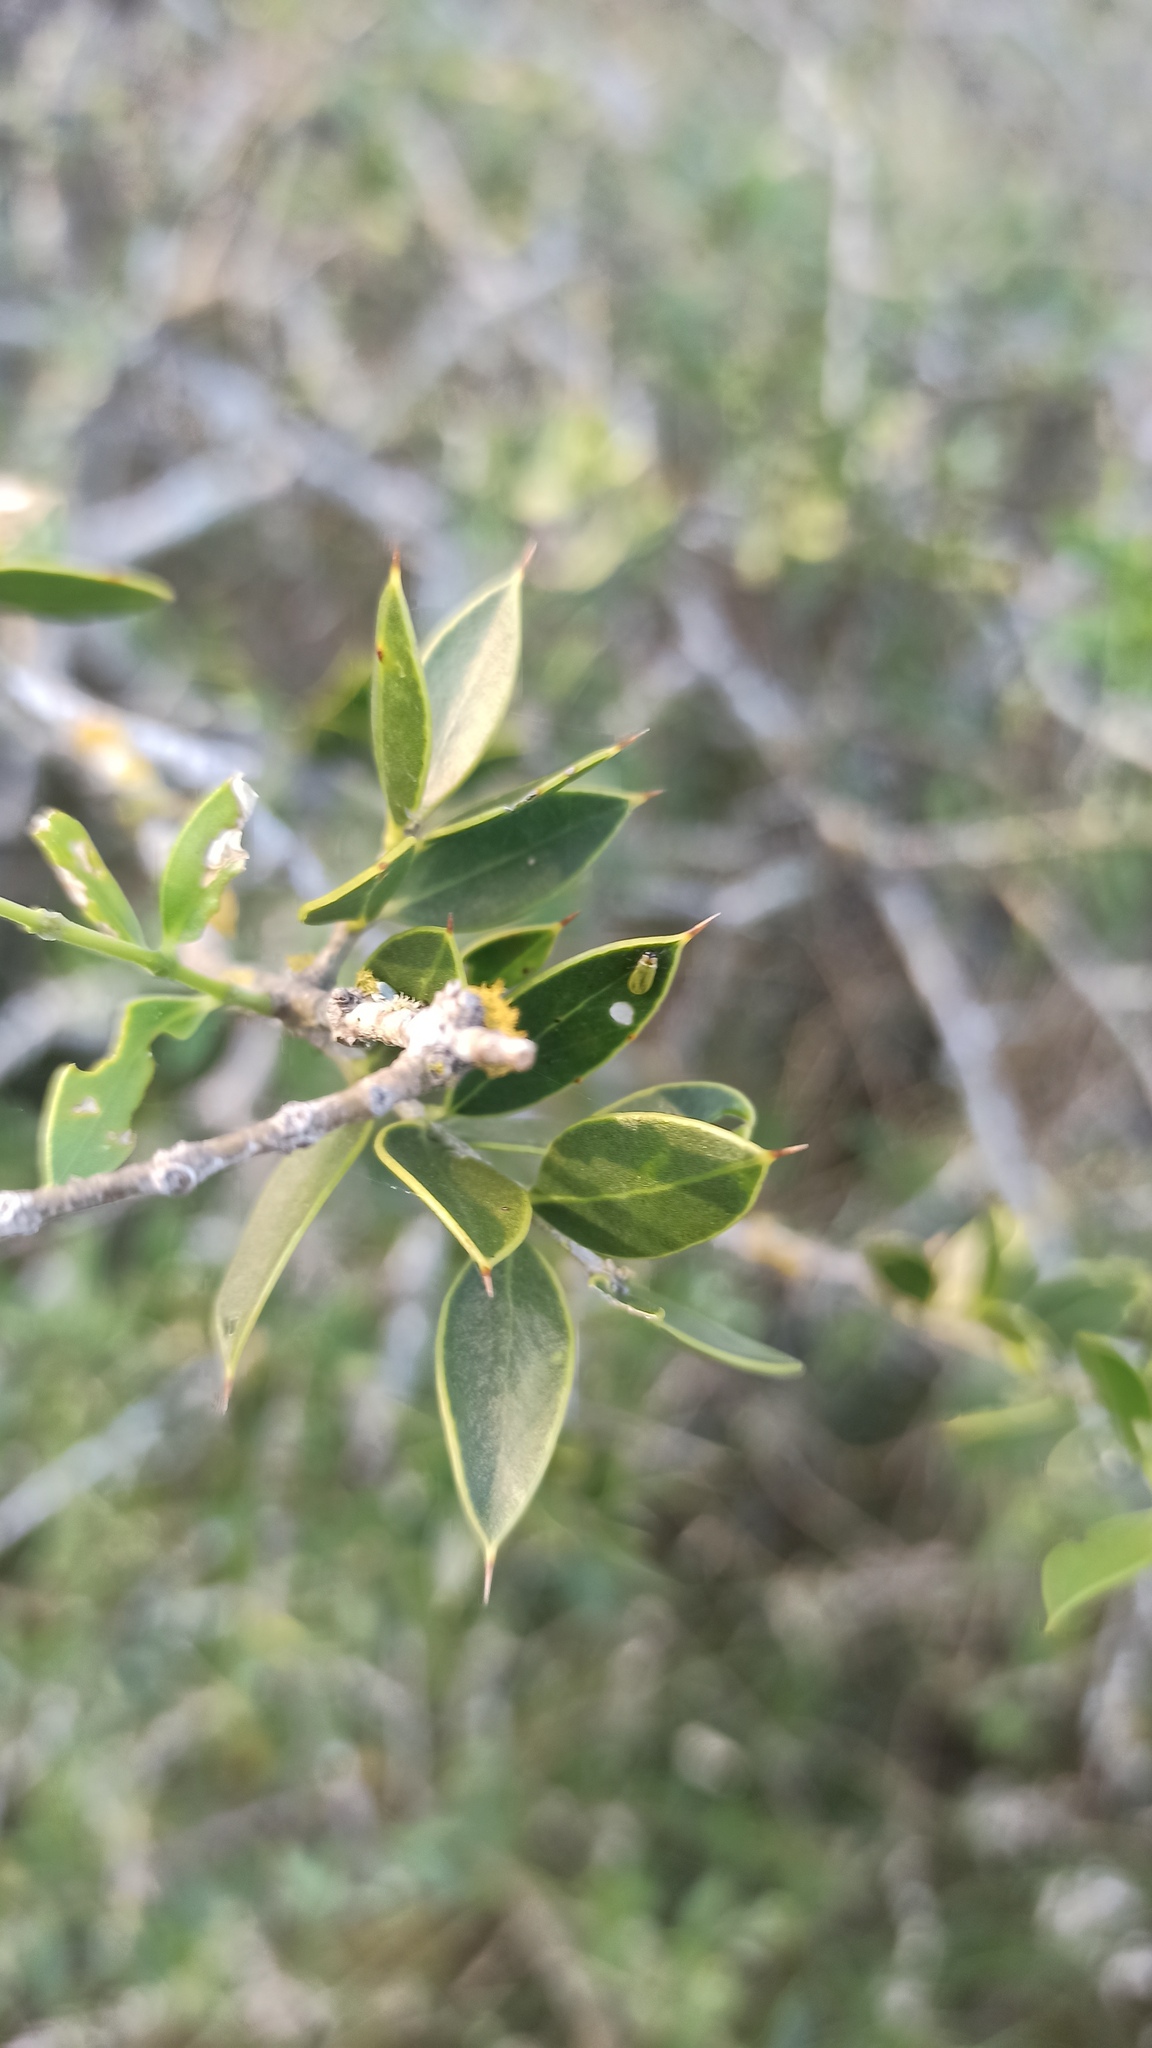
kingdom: Plantae
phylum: Tracheophyta
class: Magnoliopsida
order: Gentianales
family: Apocynaceae
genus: Aspidosperma
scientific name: Aspidosperma quebracho-blanco
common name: White quebracho
